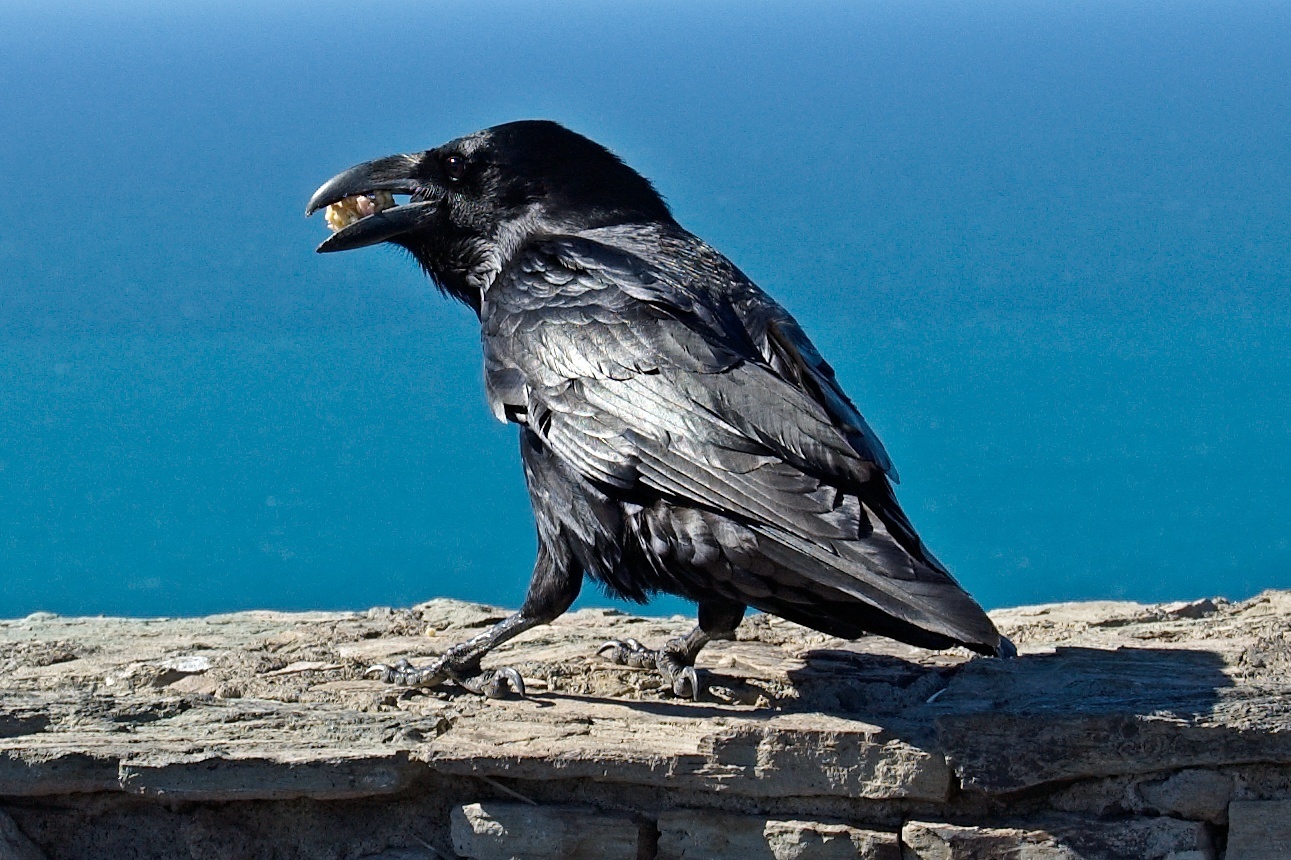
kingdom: Animalia
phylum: Chordata
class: Aves
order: Passeriformes
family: Corvidae
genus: Corvus
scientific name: Corvus corax
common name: Common raven
